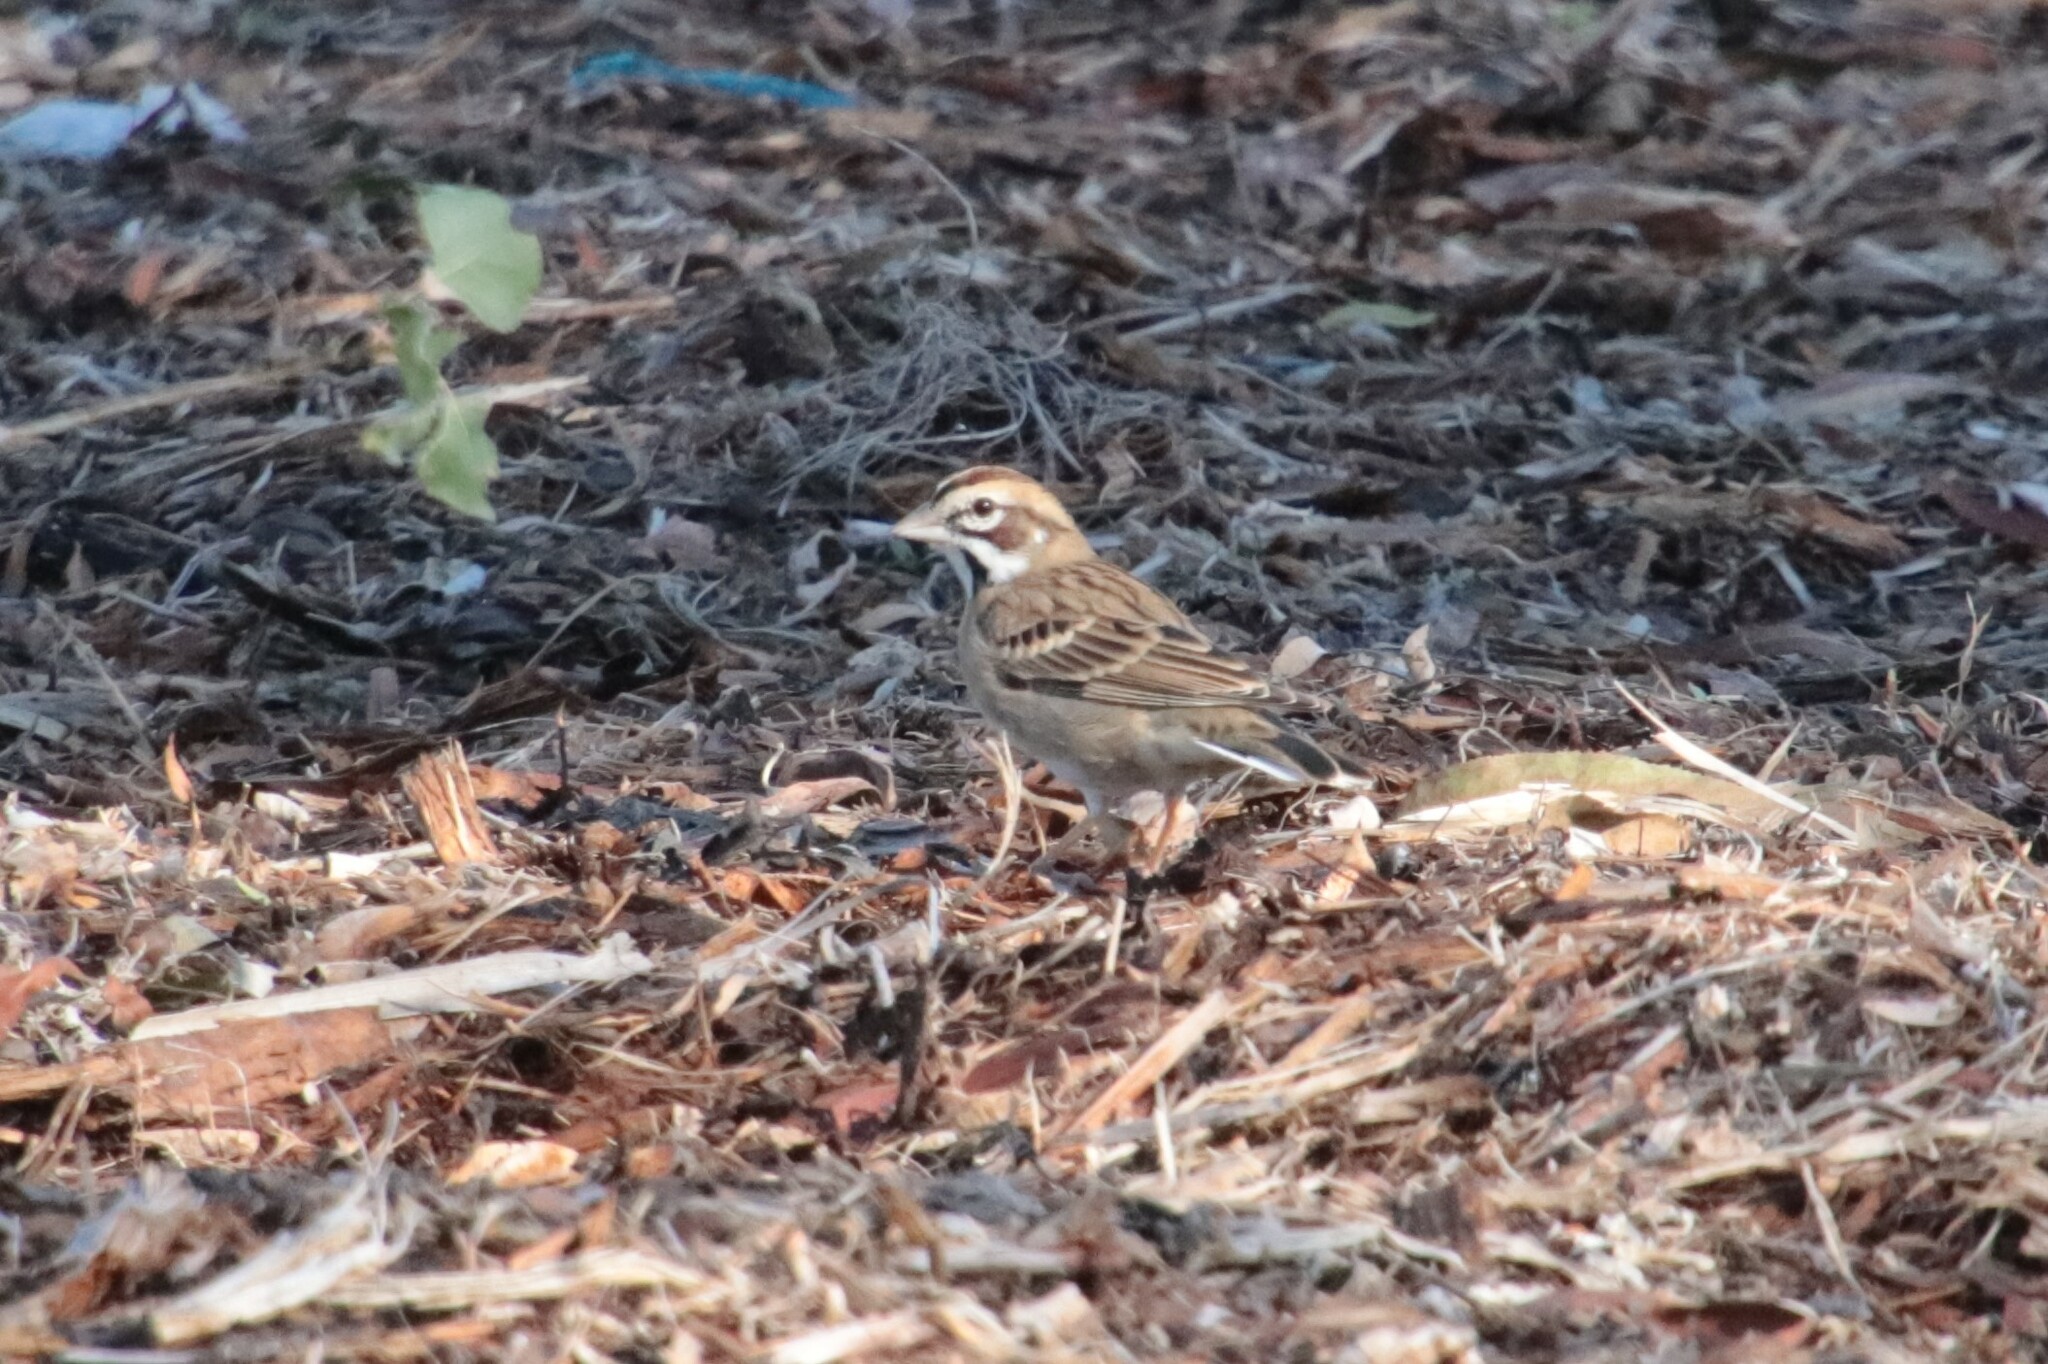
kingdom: Animalia
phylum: Chordata
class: Aves
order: Passeriformes
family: Passerellidae
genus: Chondestes
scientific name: Chondestes grammacus
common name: Lark sparrow
